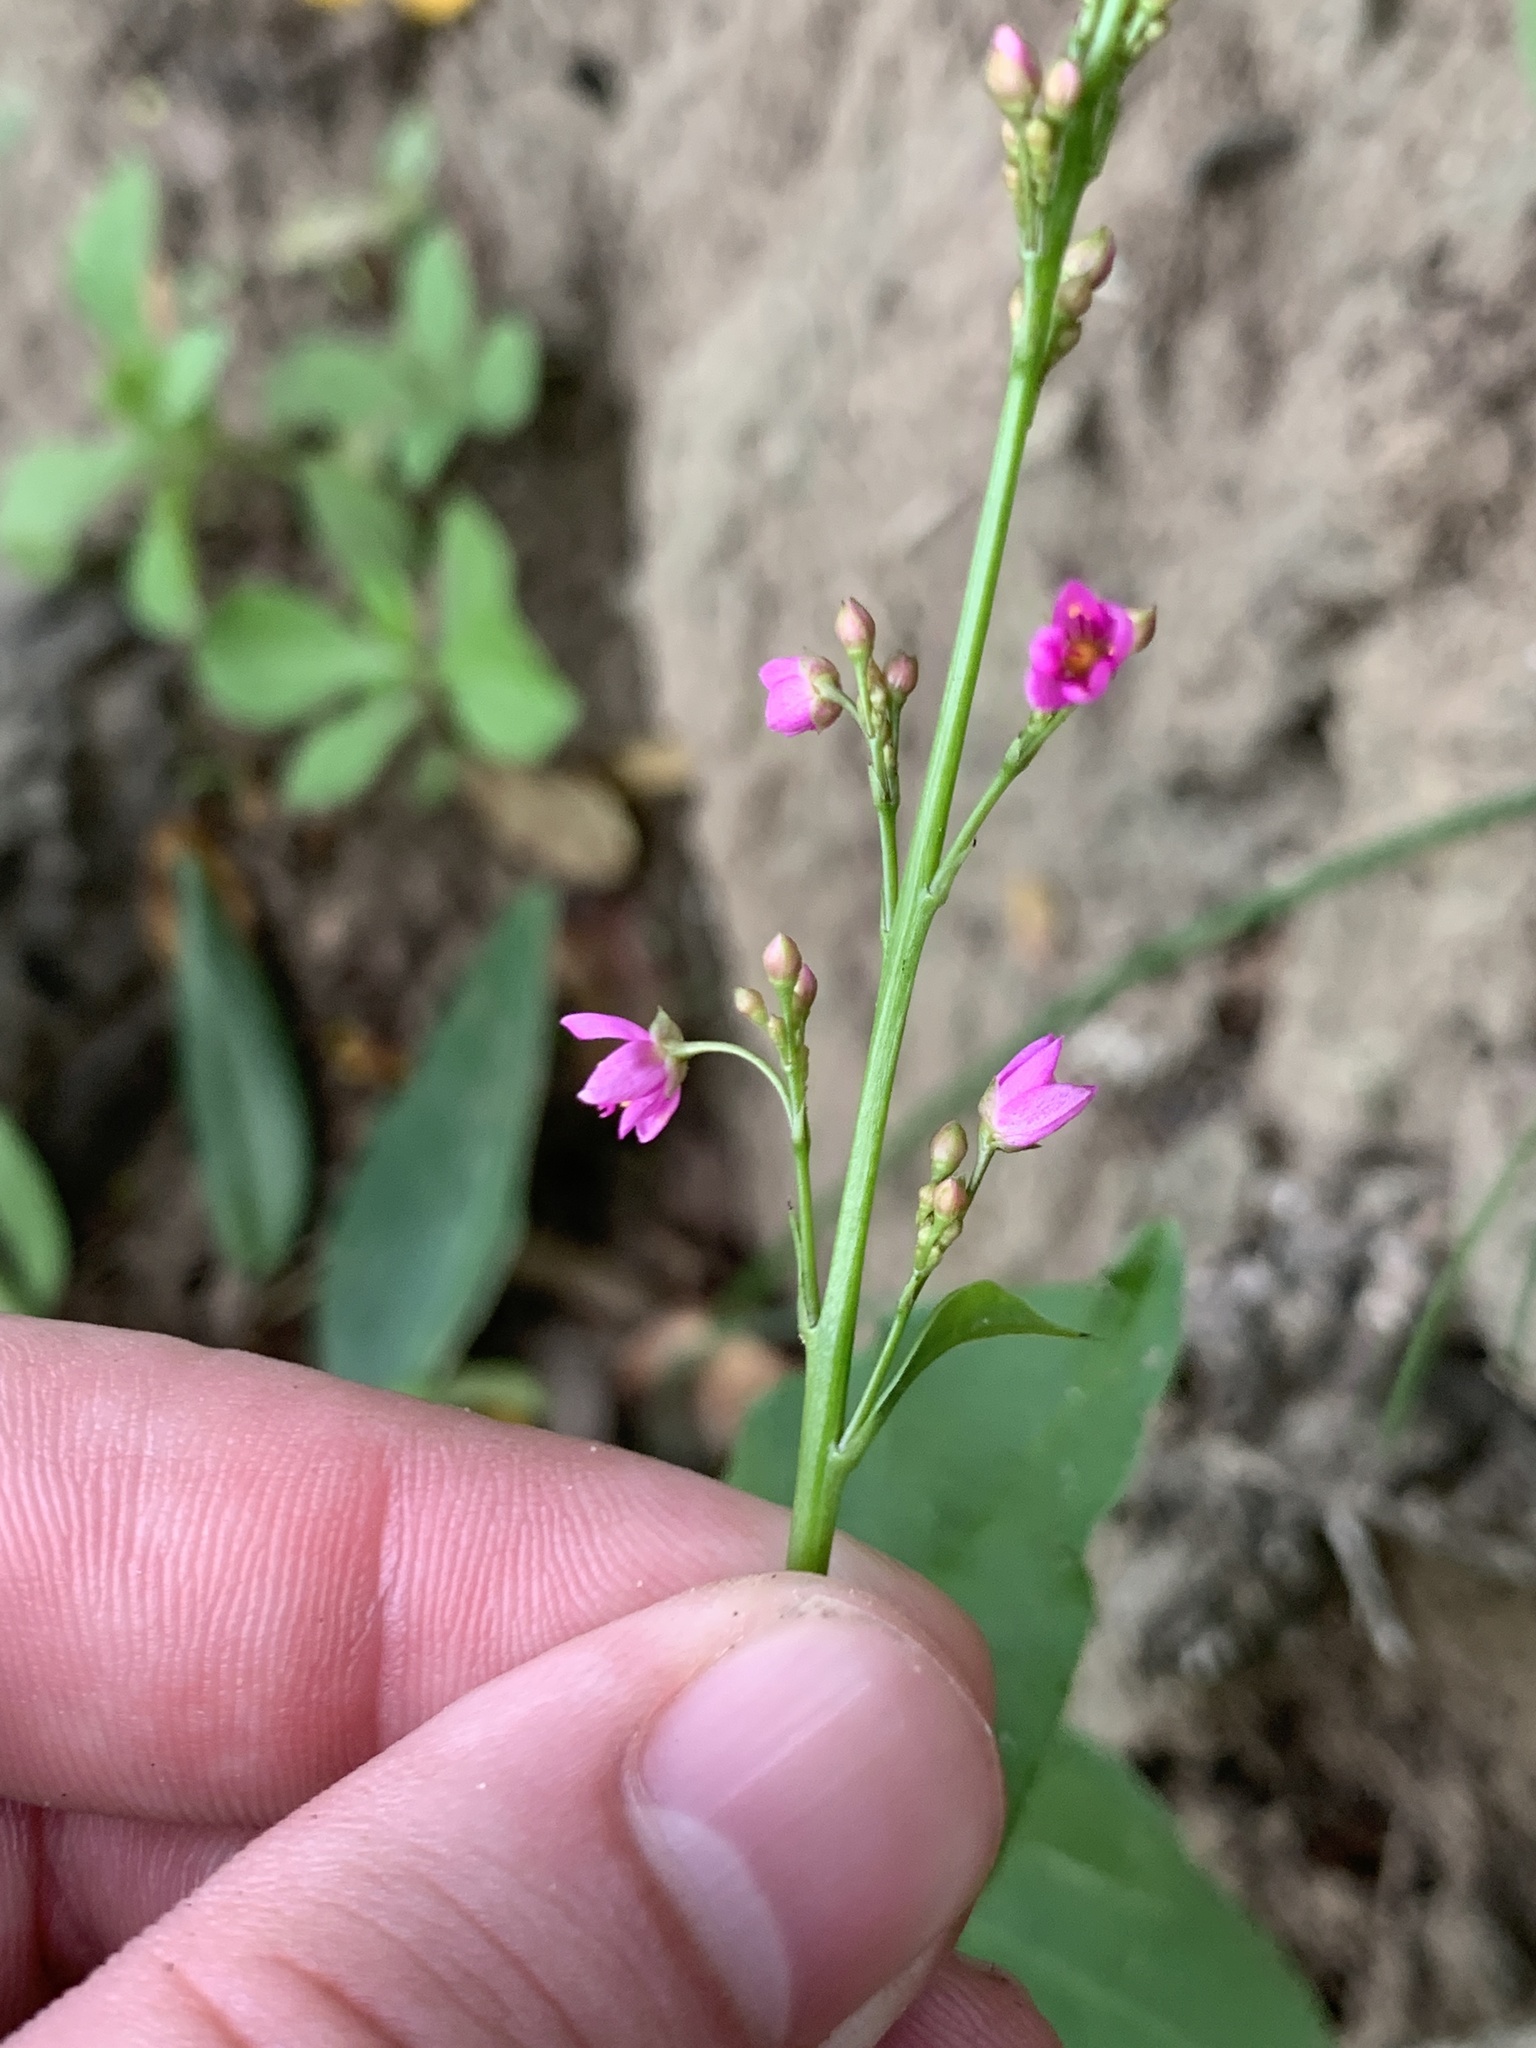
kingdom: Plantae
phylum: Tracheophyta
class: Magnoliopsida
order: Caryophyllales
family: Talinaceae
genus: Talinum
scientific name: Talinum paniculatum
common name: Jewels of opar
